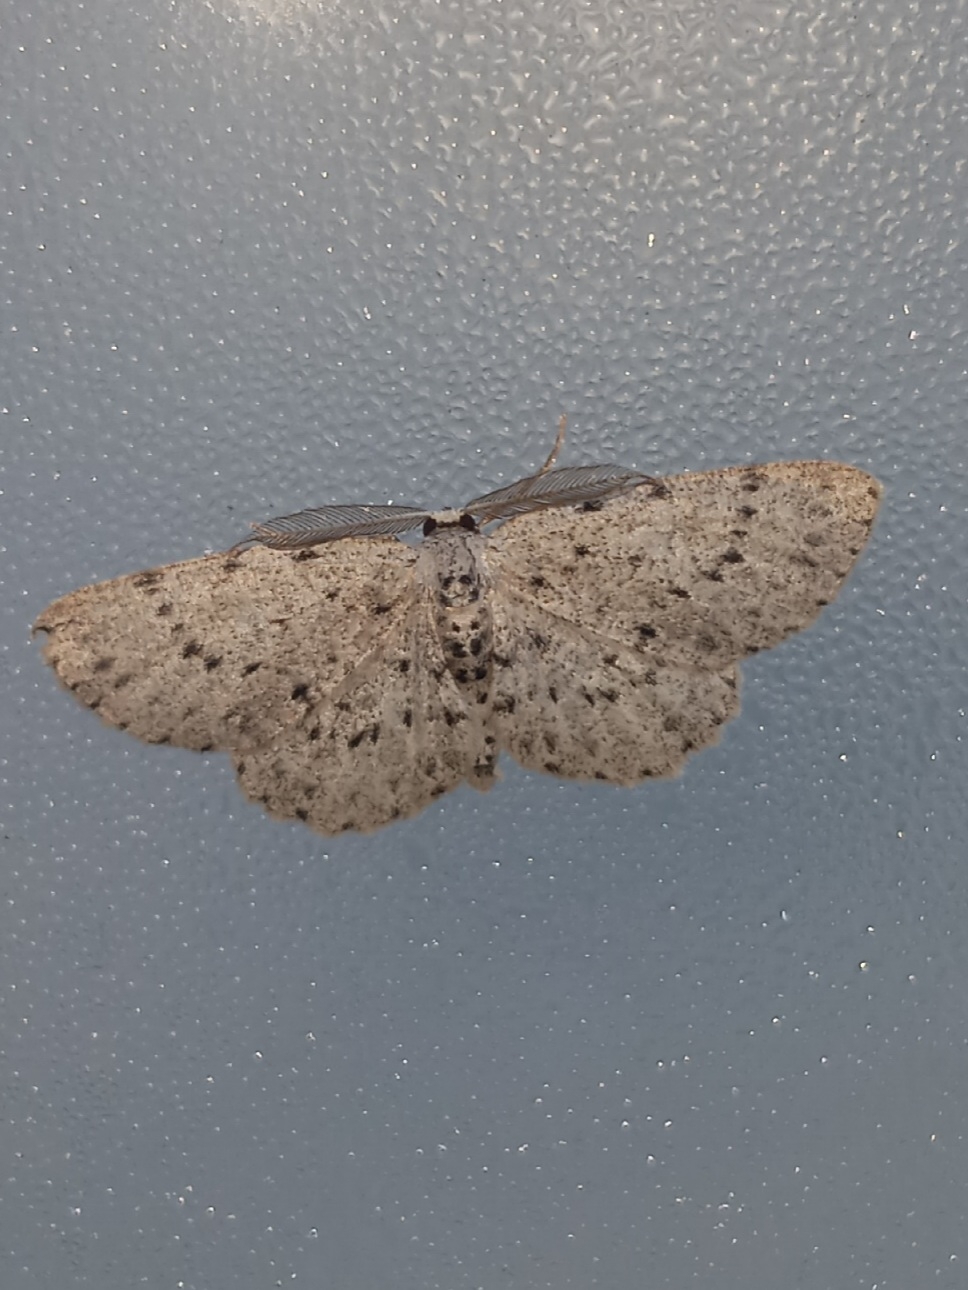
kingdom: Animalia
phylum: Arthropoda
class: Insecta
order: Lepidoptera
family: Geometridae
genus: Glena
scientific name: Glena cribrataria
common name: Dotted gray
